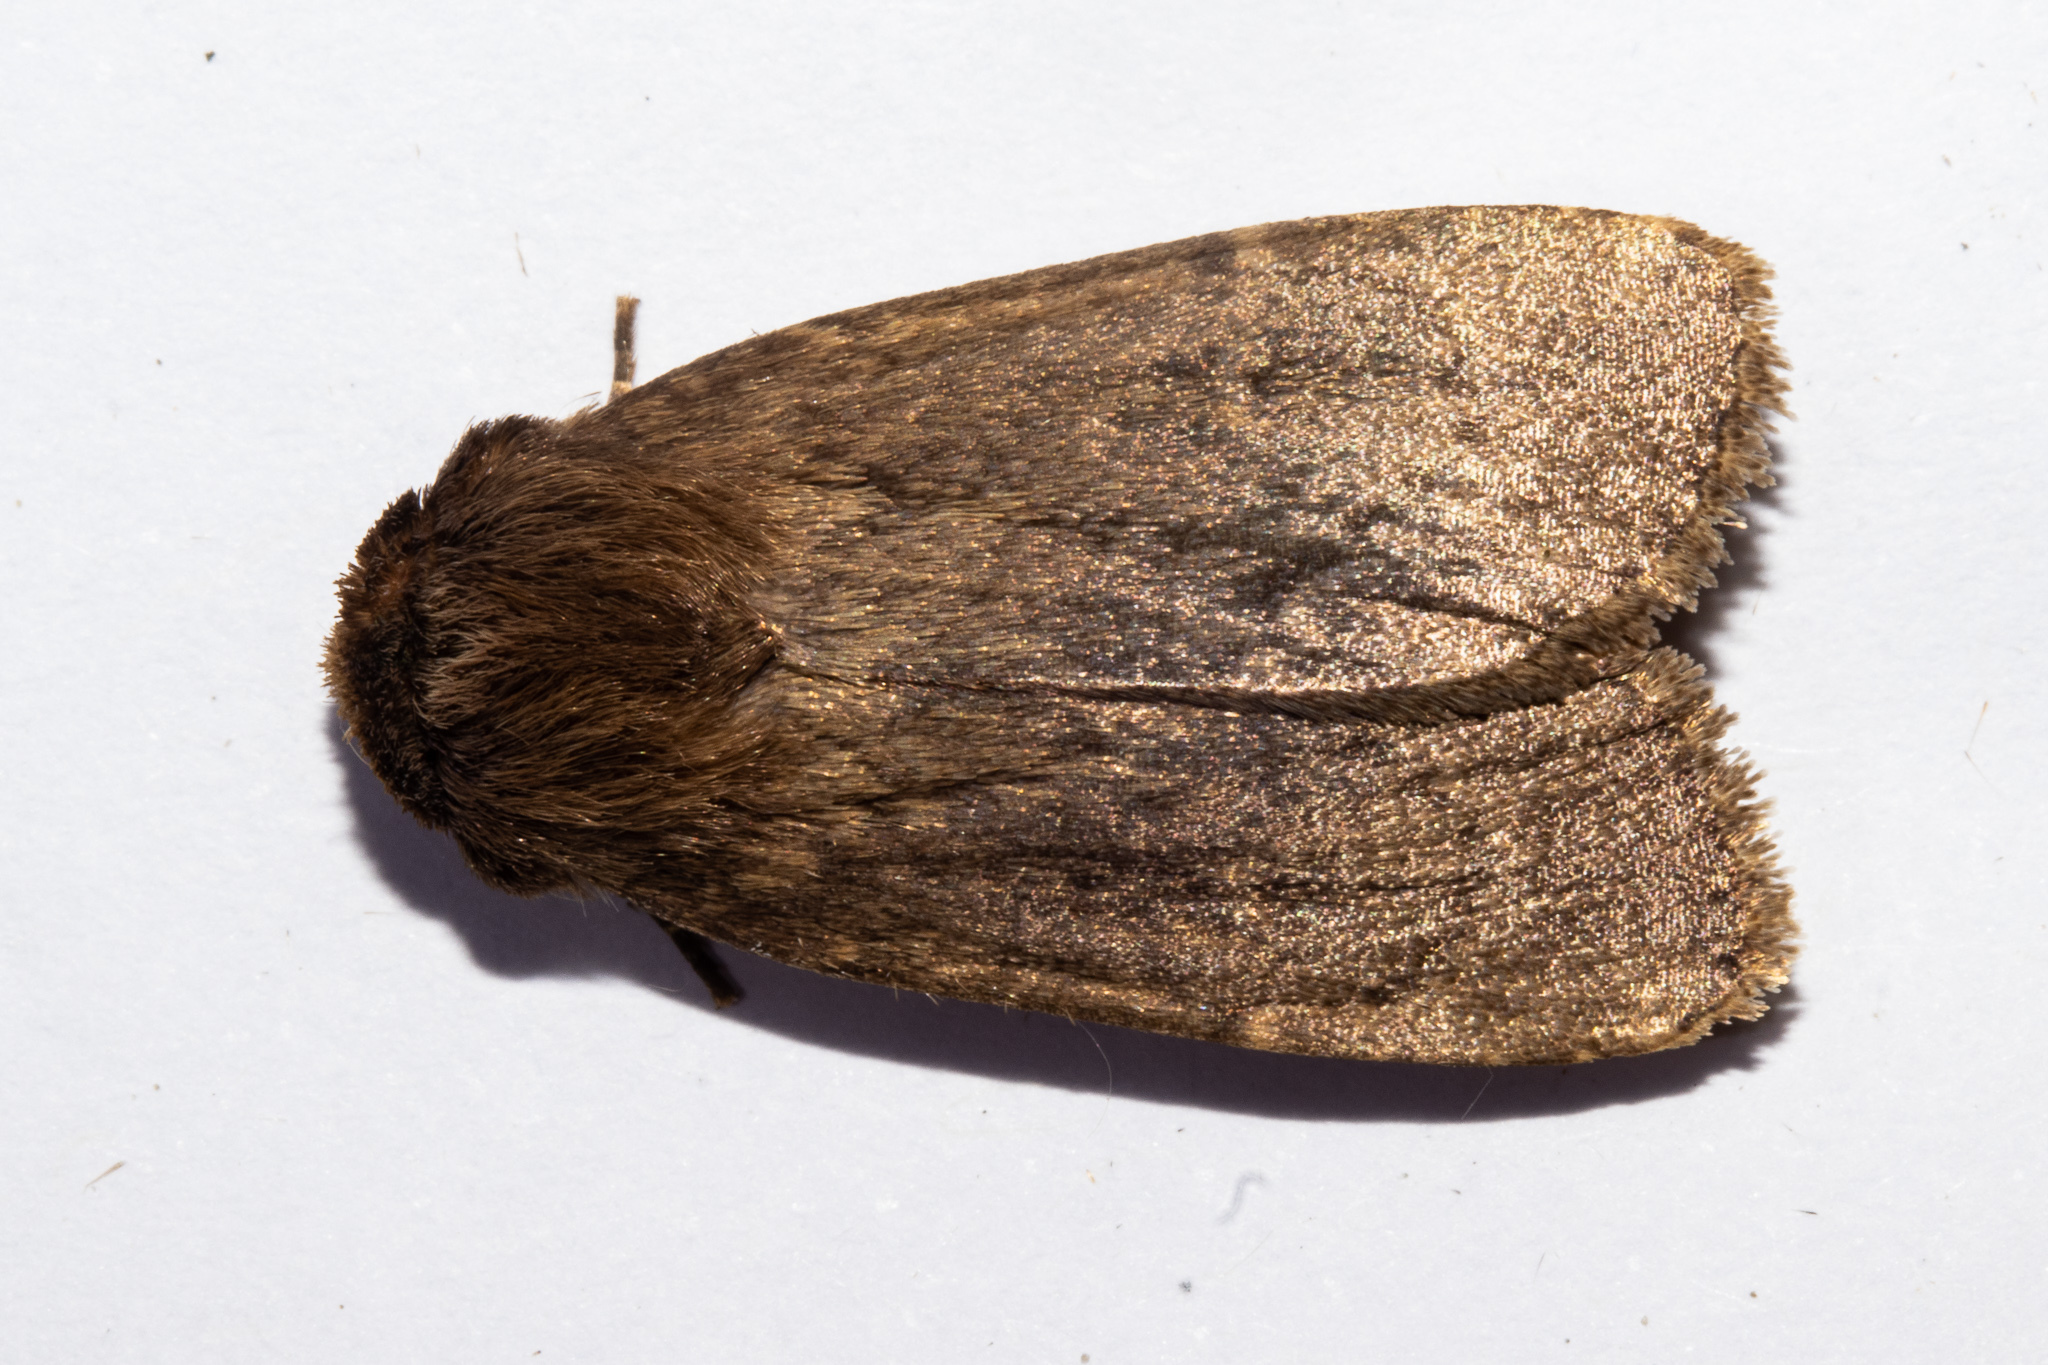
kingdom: Animalia
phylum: Arthropoda
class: Insecta
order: Lepidoptera
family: Noctuidae
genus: Bityla
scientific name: Bityla defigurata
